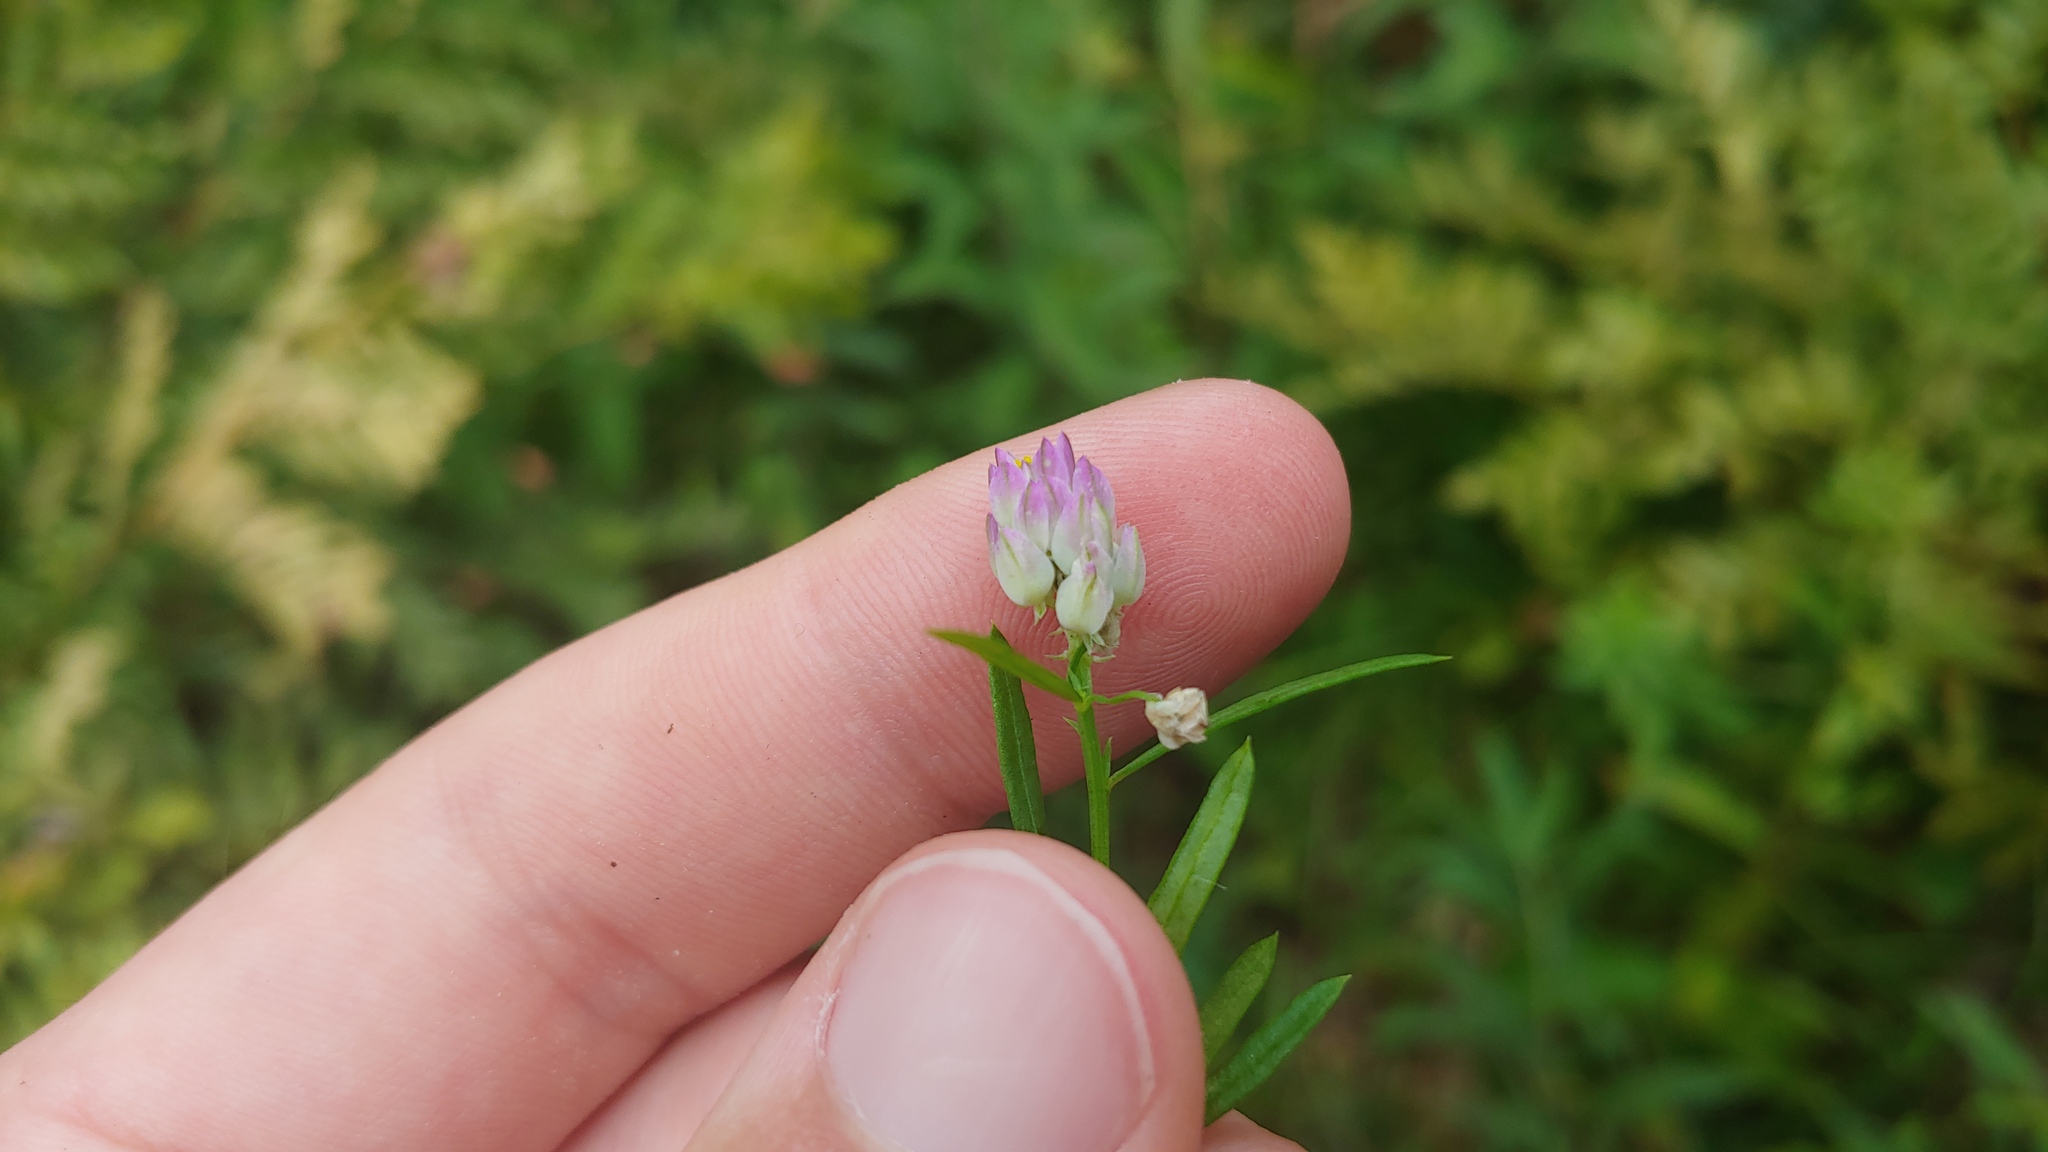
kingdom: Plantae
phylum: Tracheophyta
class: Magnoliopsida
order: Fabales
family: Polygalaceae
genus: Polygala
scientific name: Polygala sanguinea
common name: Blood milkwort
